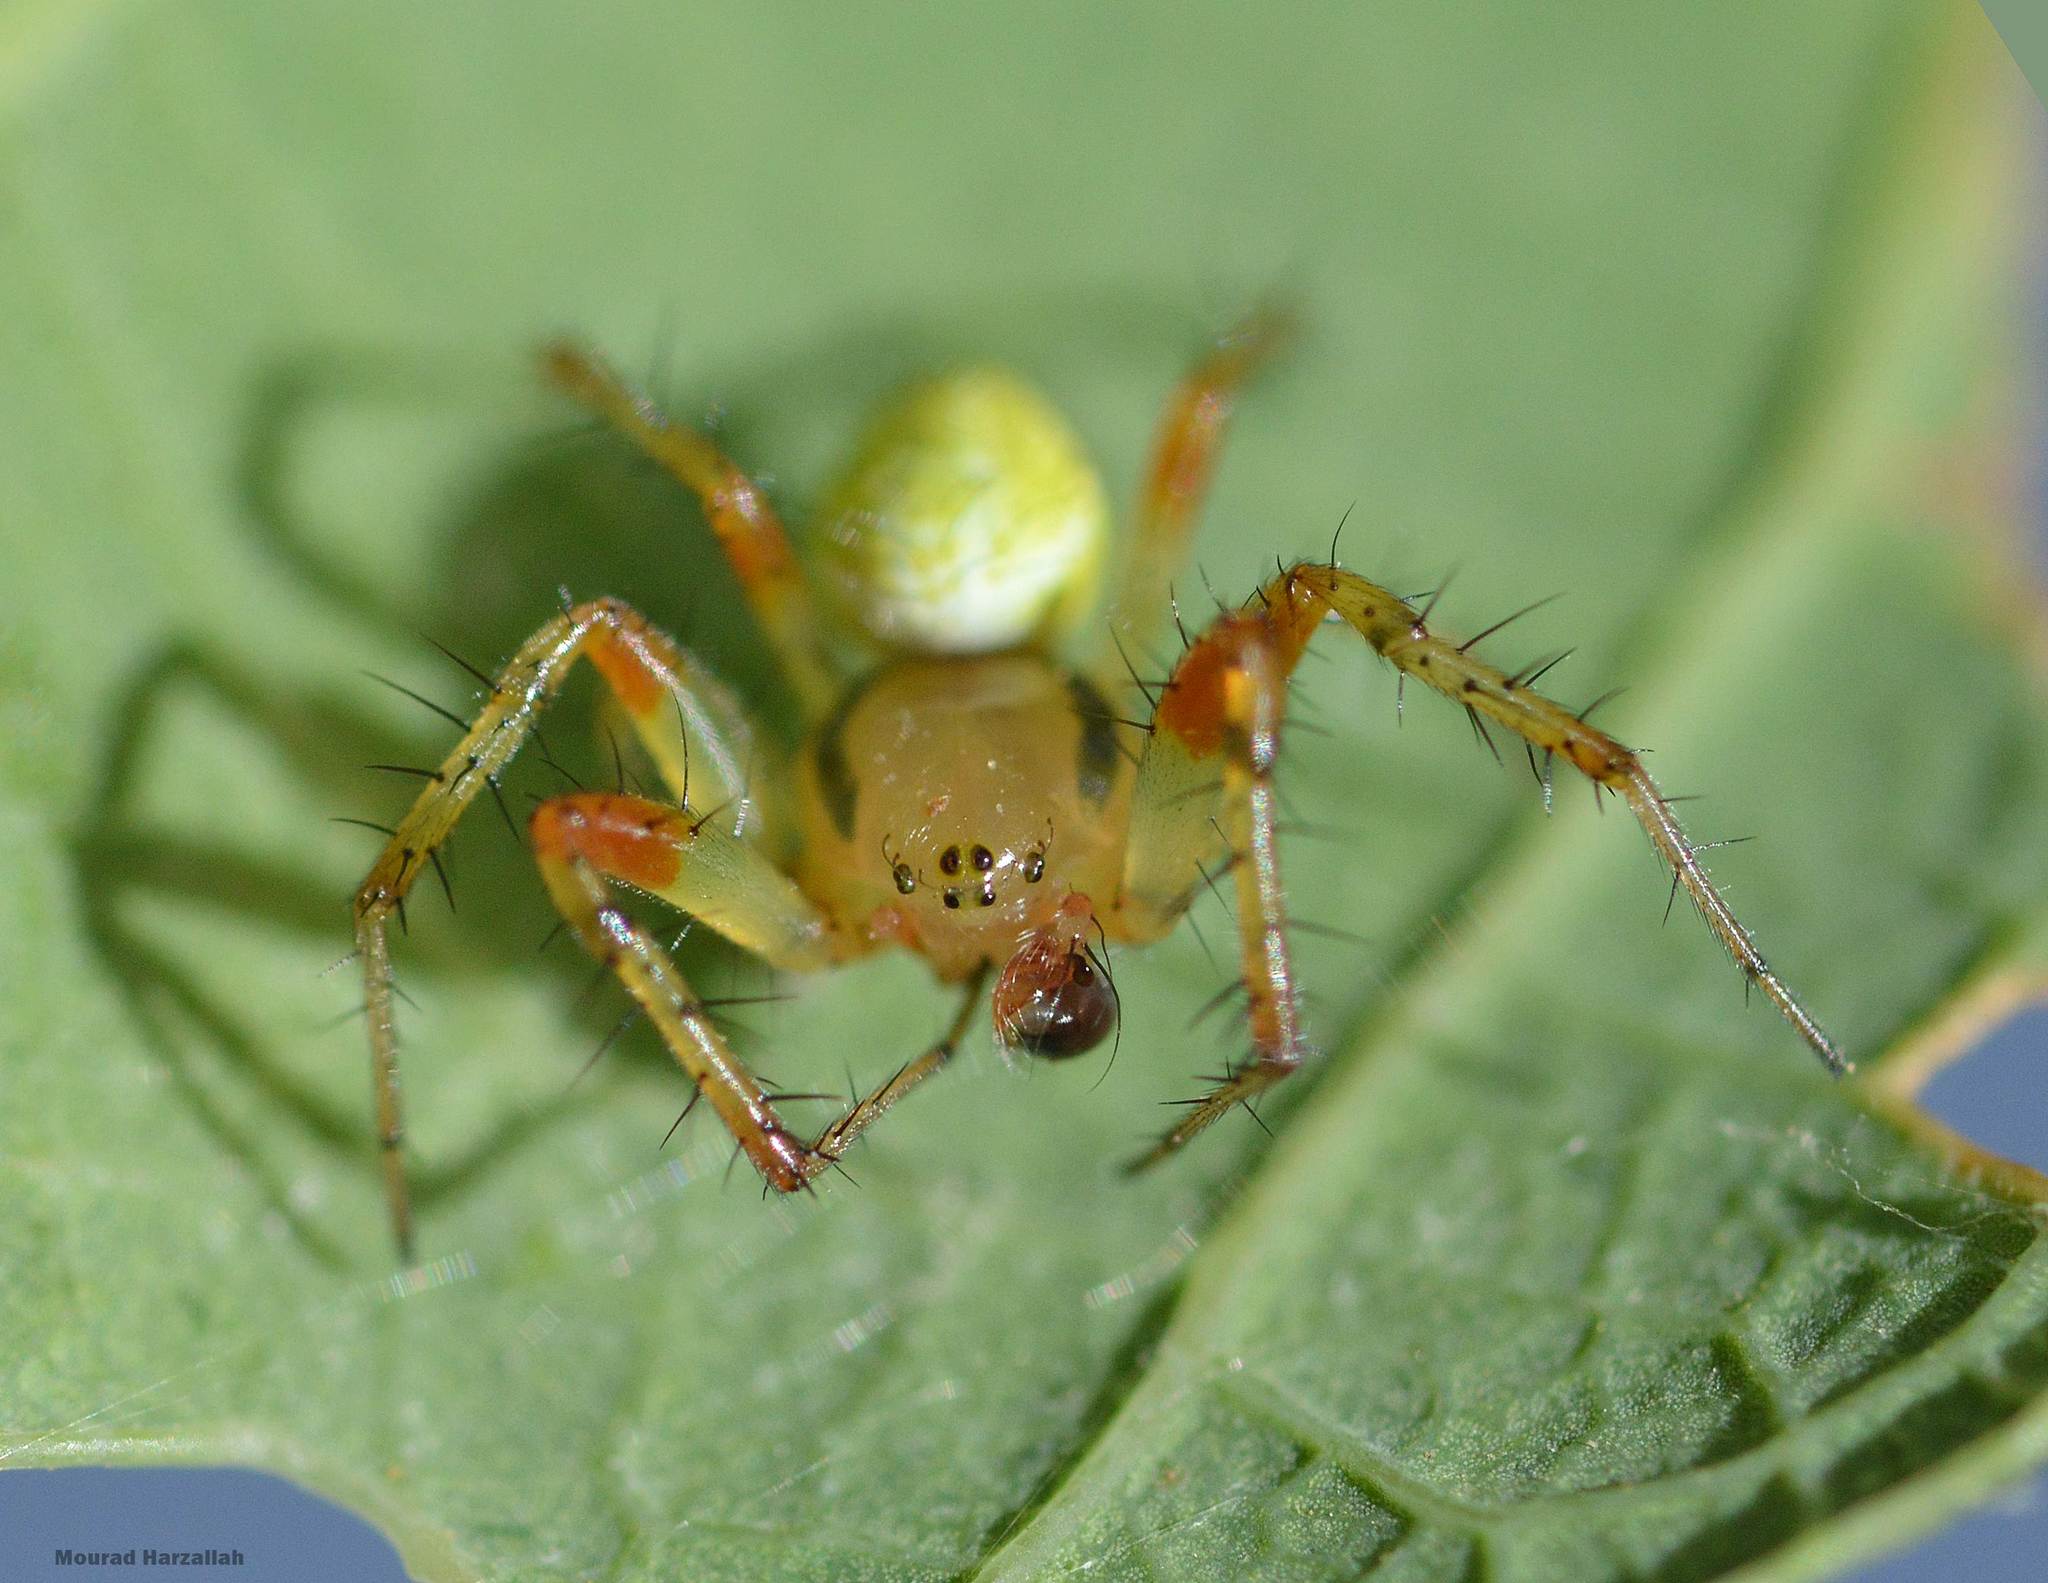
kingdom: Animalia
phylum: Arthropoda
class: Arachnida
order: Araneae
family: Araneidae
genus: Araniella
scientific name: Araniella cucurbitina
